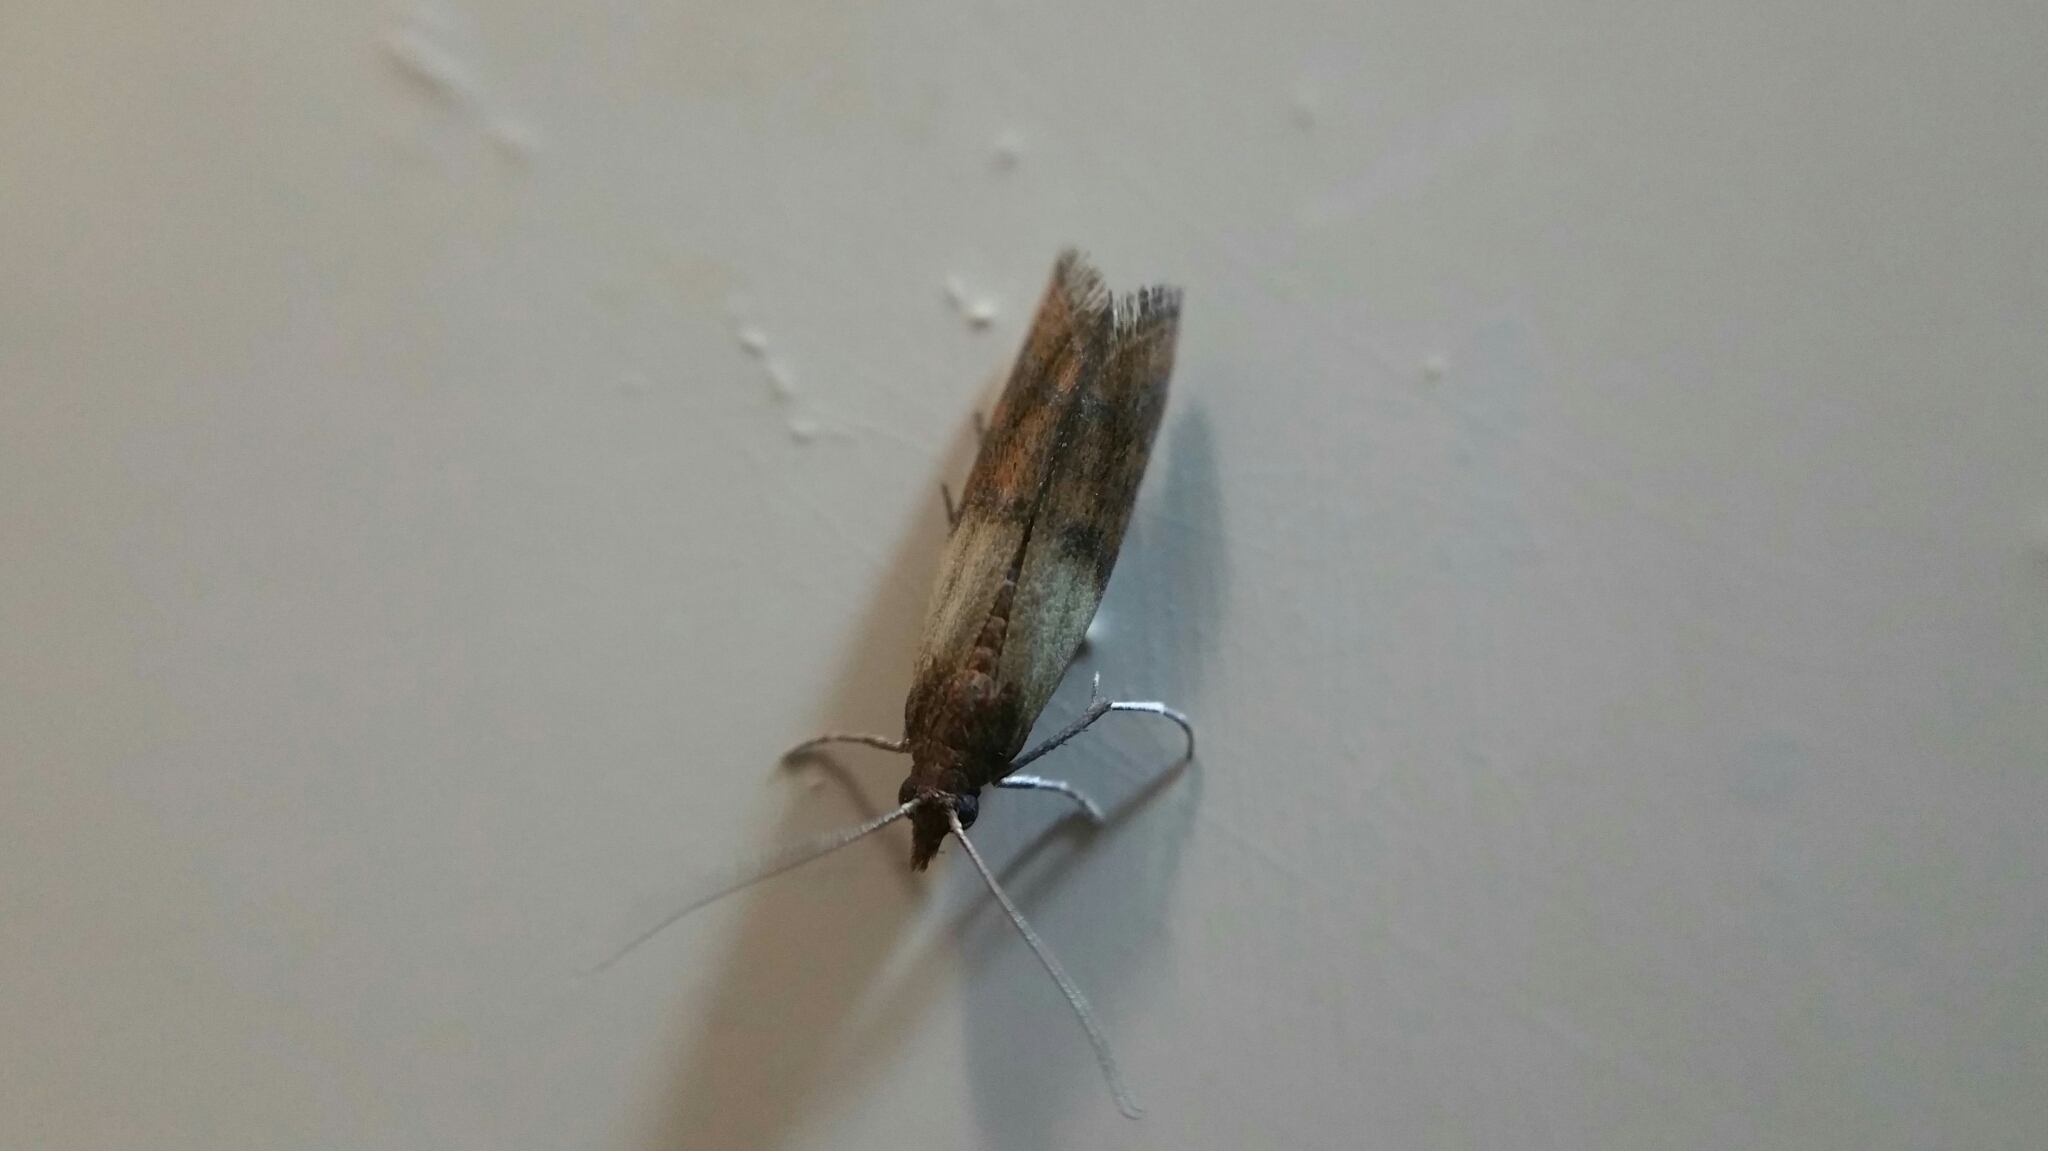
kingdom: Animalia
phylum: Arthropoda
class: Insecta
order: Lepidoptera
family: Pyralidae
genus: Plodia
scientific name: Plodia interpunctella
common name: Indian meal moth
